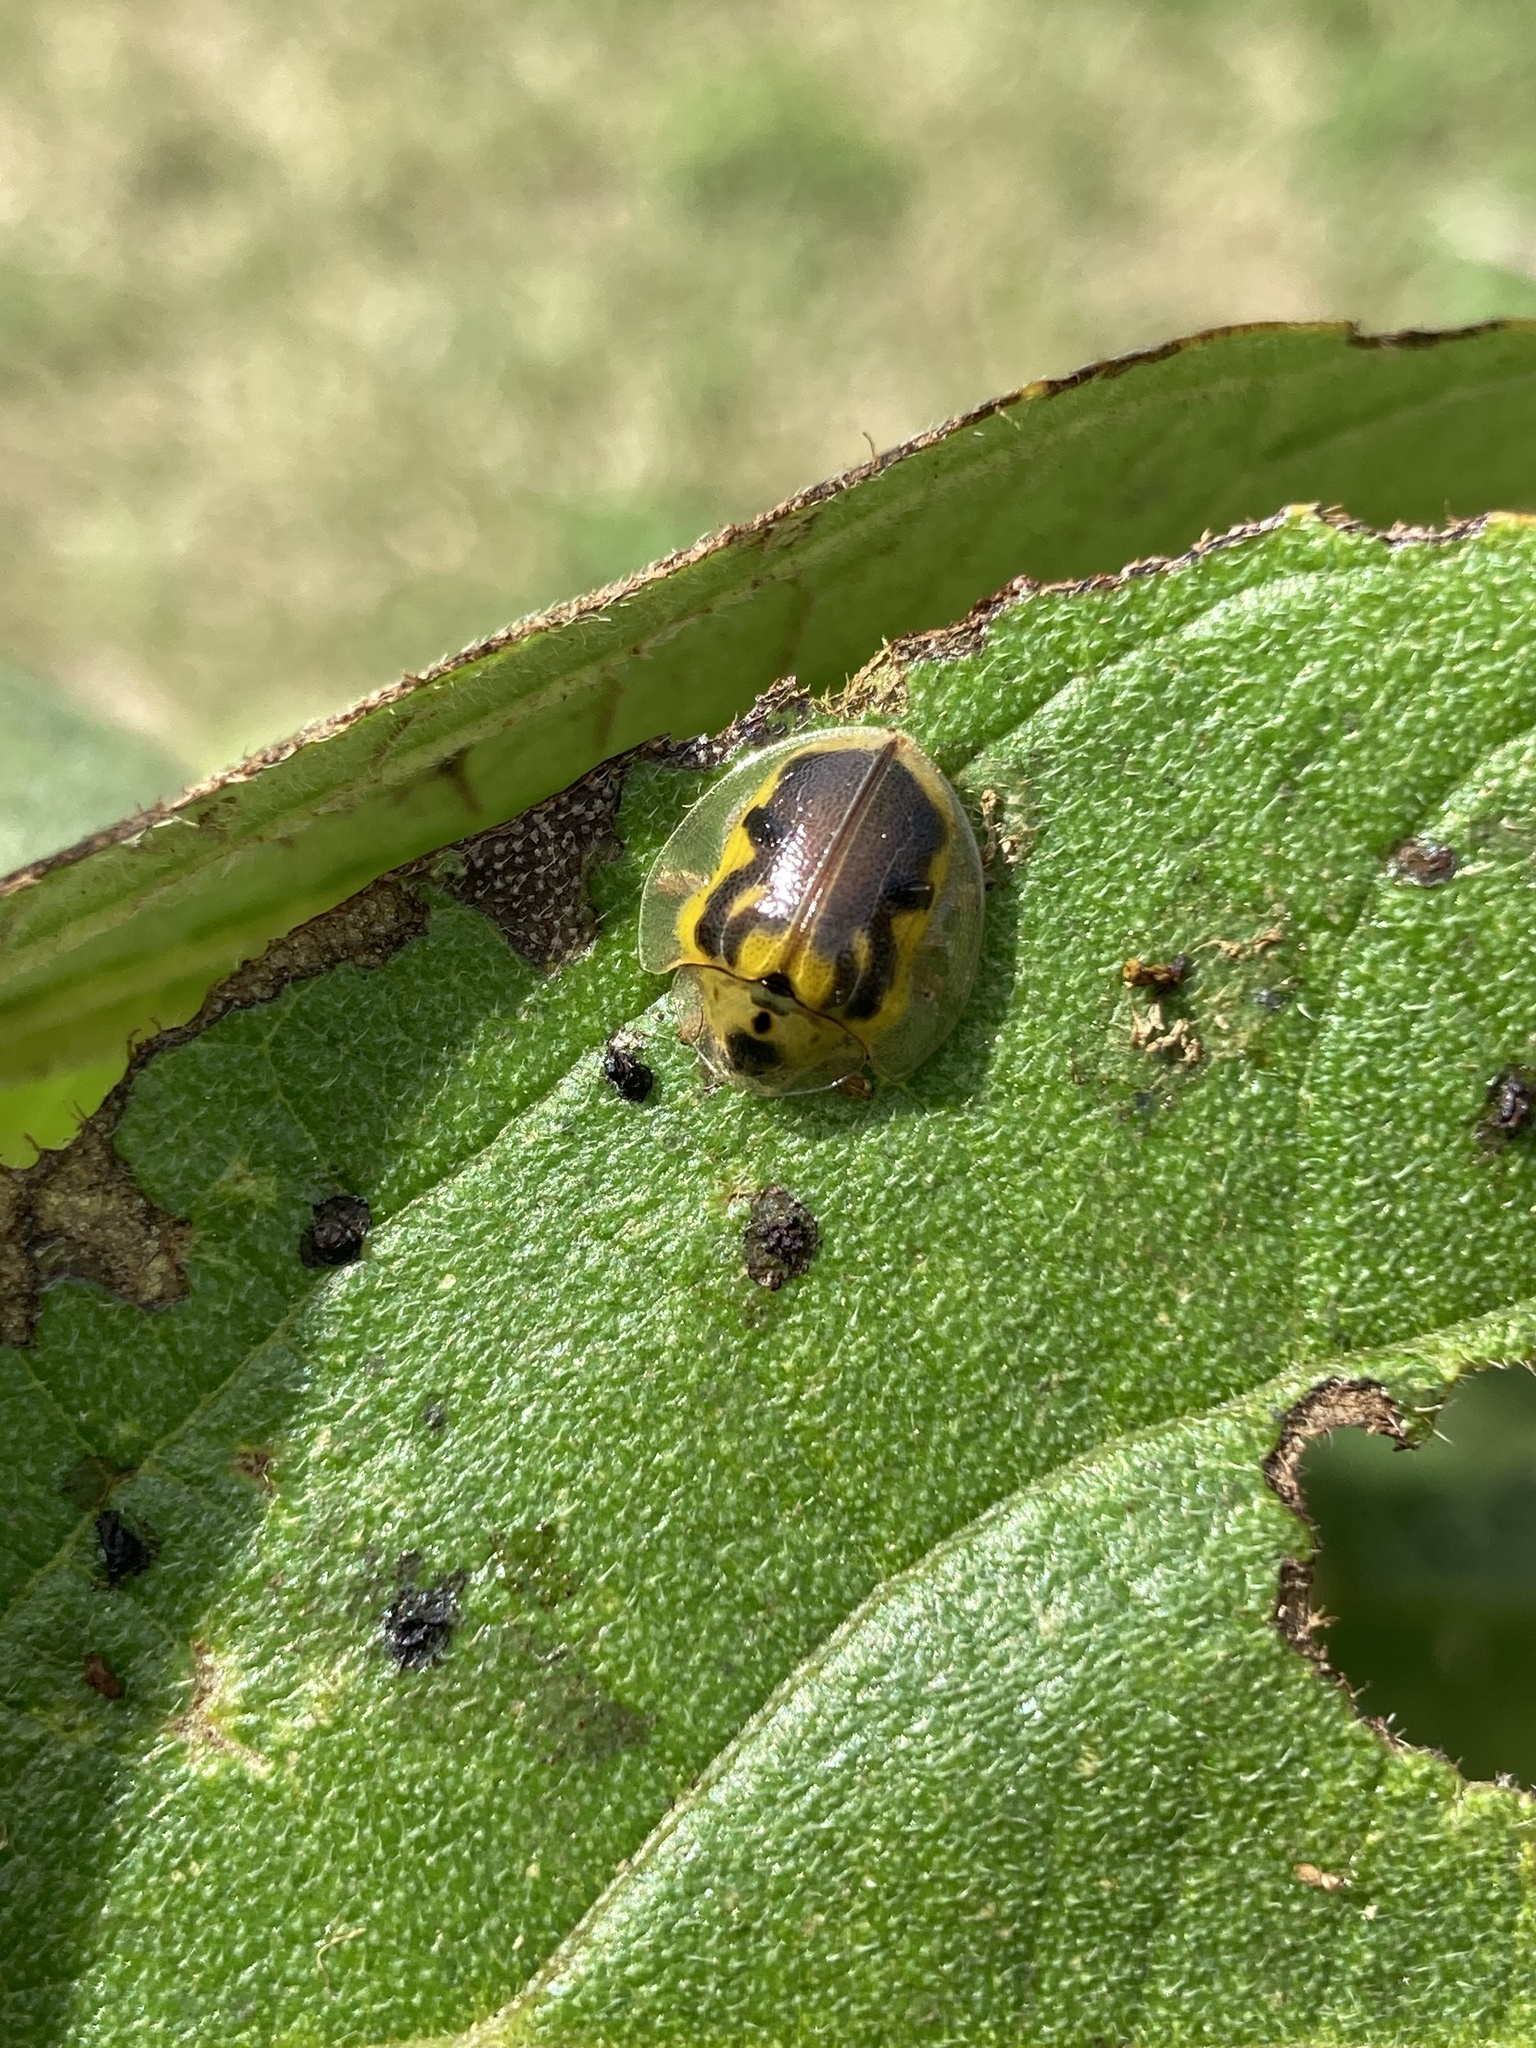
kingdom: Animalia
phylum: Arthropoda
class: Insecta
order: Coleoptera
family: Chrysomelidae
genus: Eurypepla
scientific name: Eurypepla calochroma
